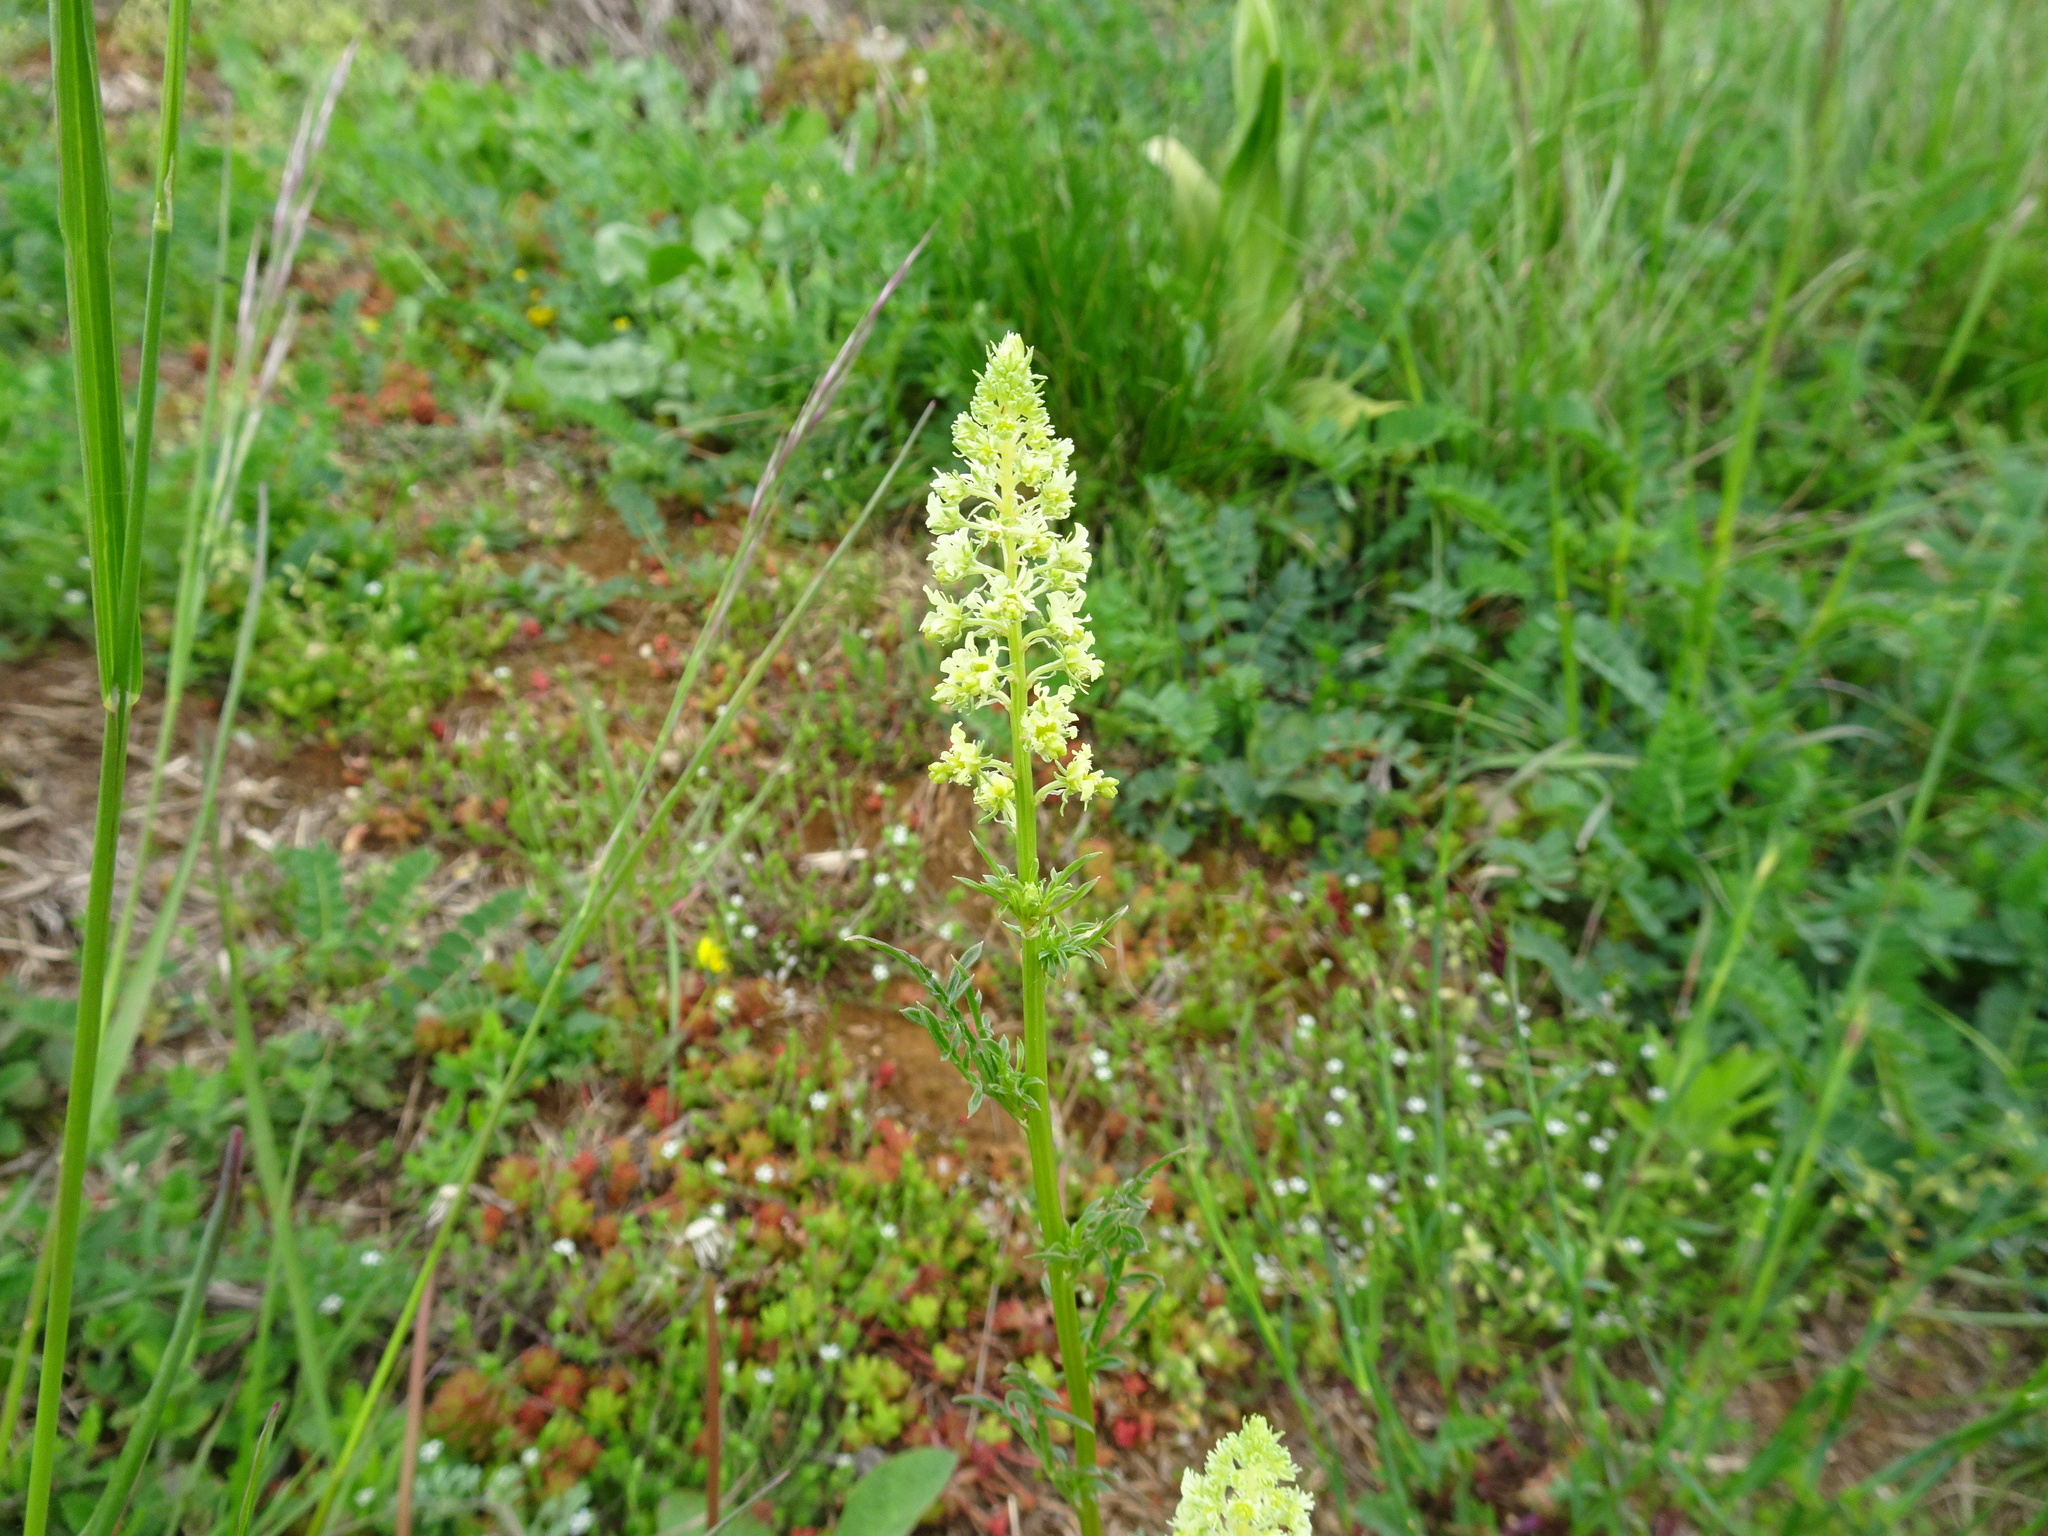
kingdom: Plantae
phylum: Tracheophyta
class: Magnoliopsida
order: Brassicales
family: Resedaceae
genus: Reseda
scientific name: Reseda lutea
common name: Wild mignonette
